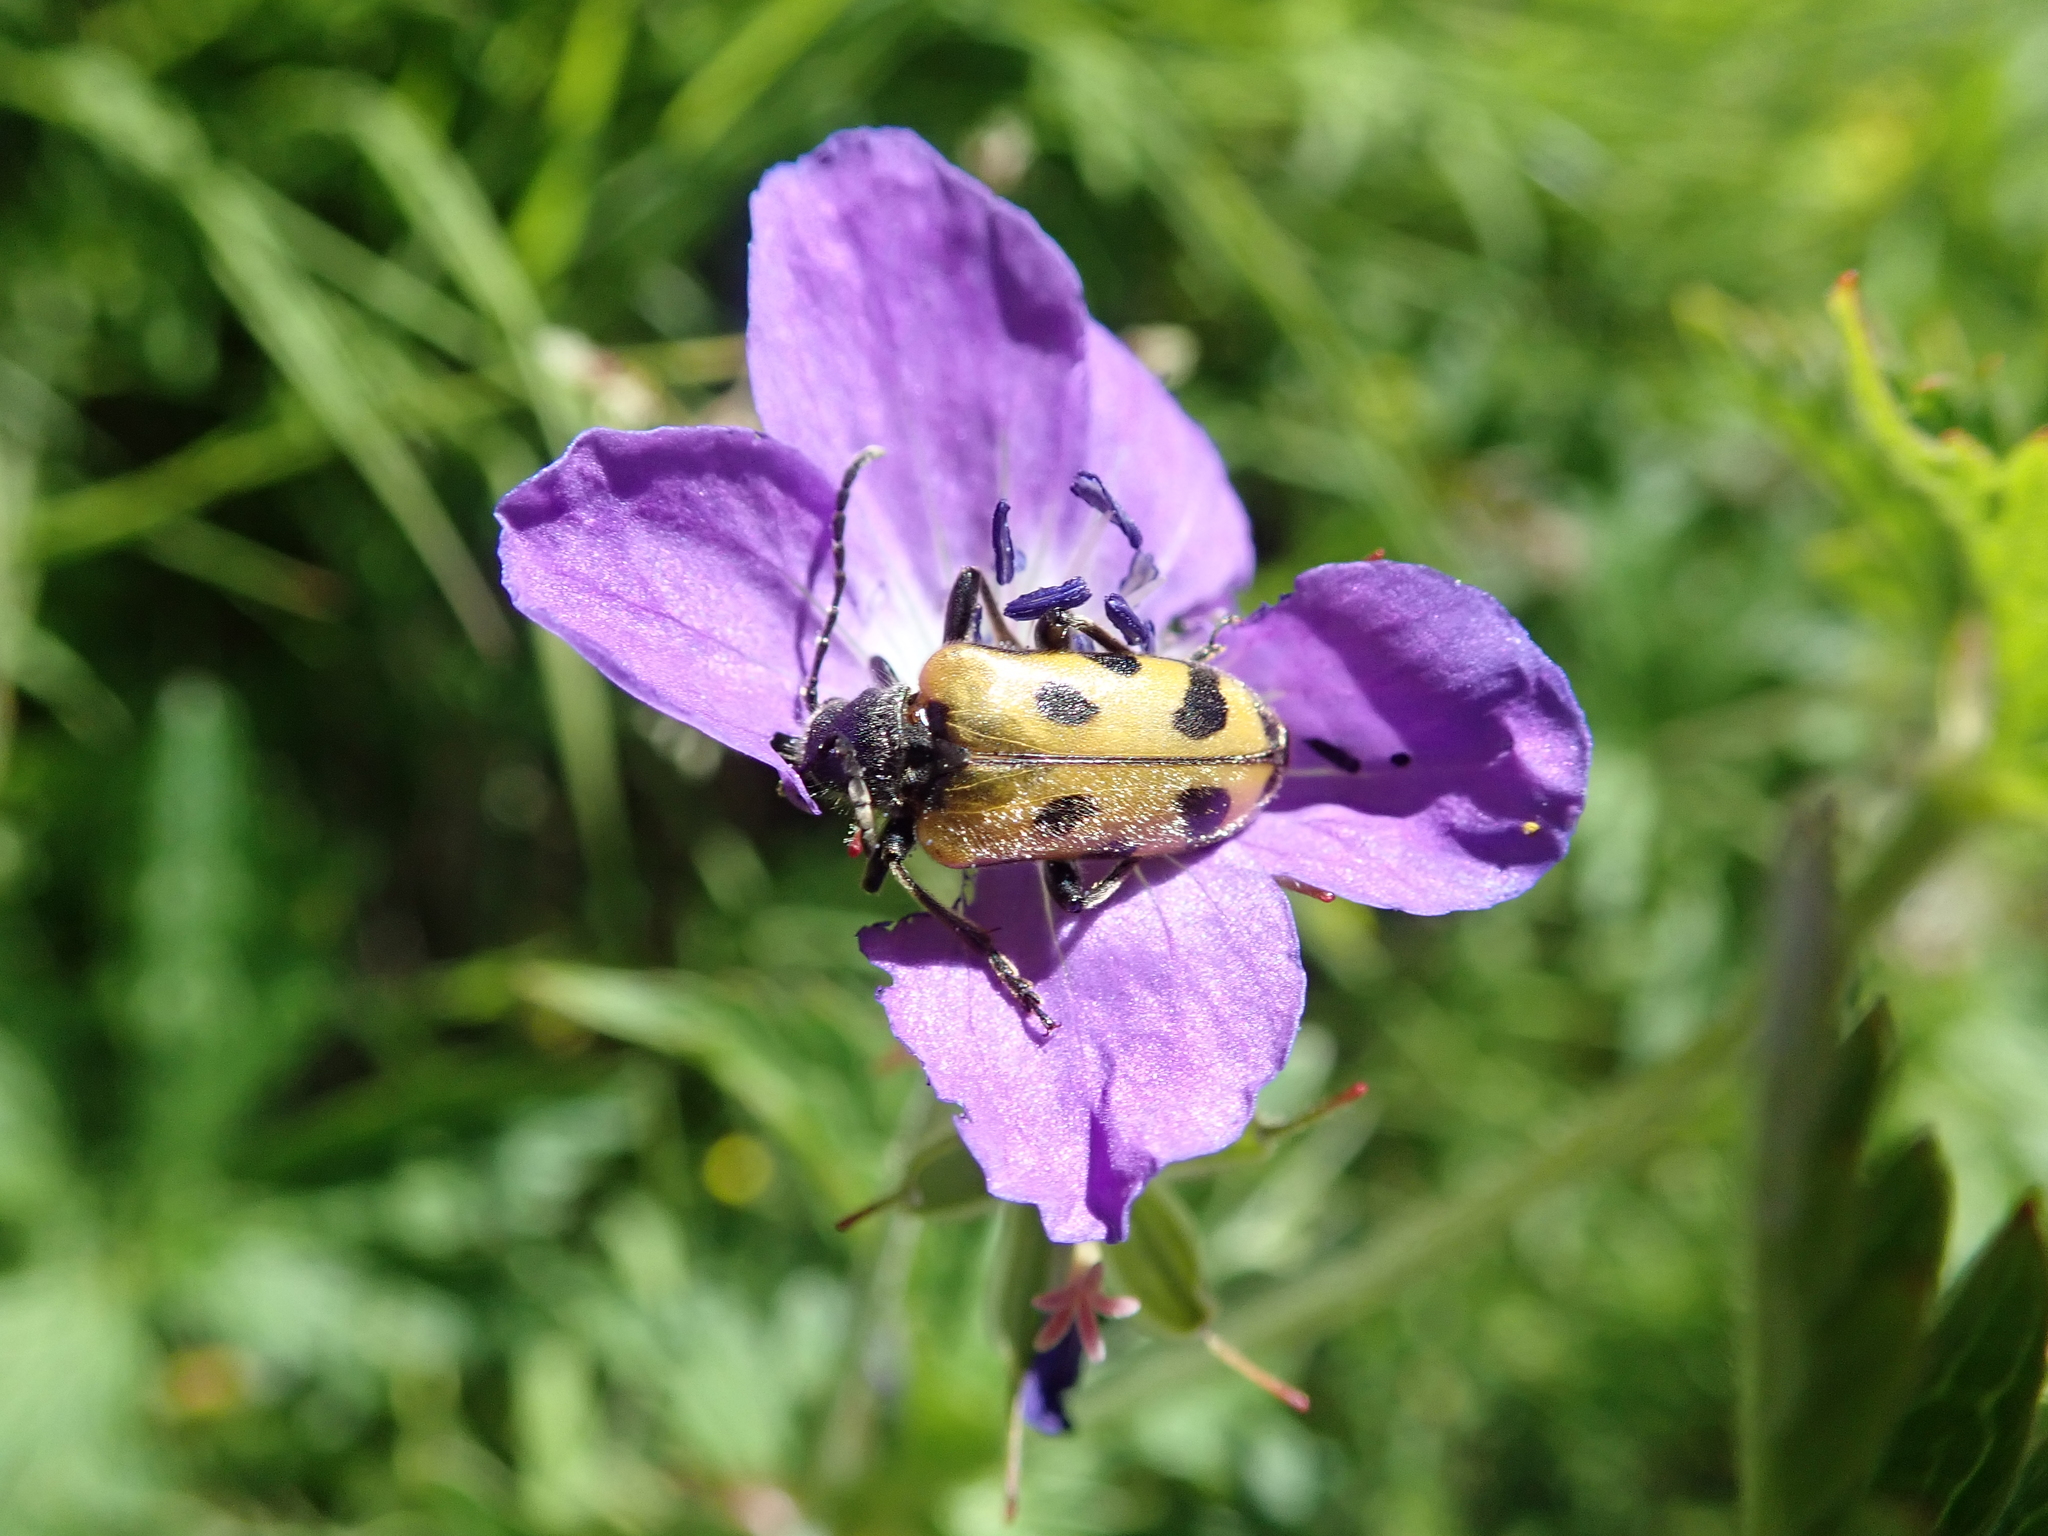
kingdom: Animalia
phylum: Arthropoda
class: Insecta
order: Coleoptera
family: Cerambycidae
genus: Brachyta
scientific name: Brachyta interrogationis
